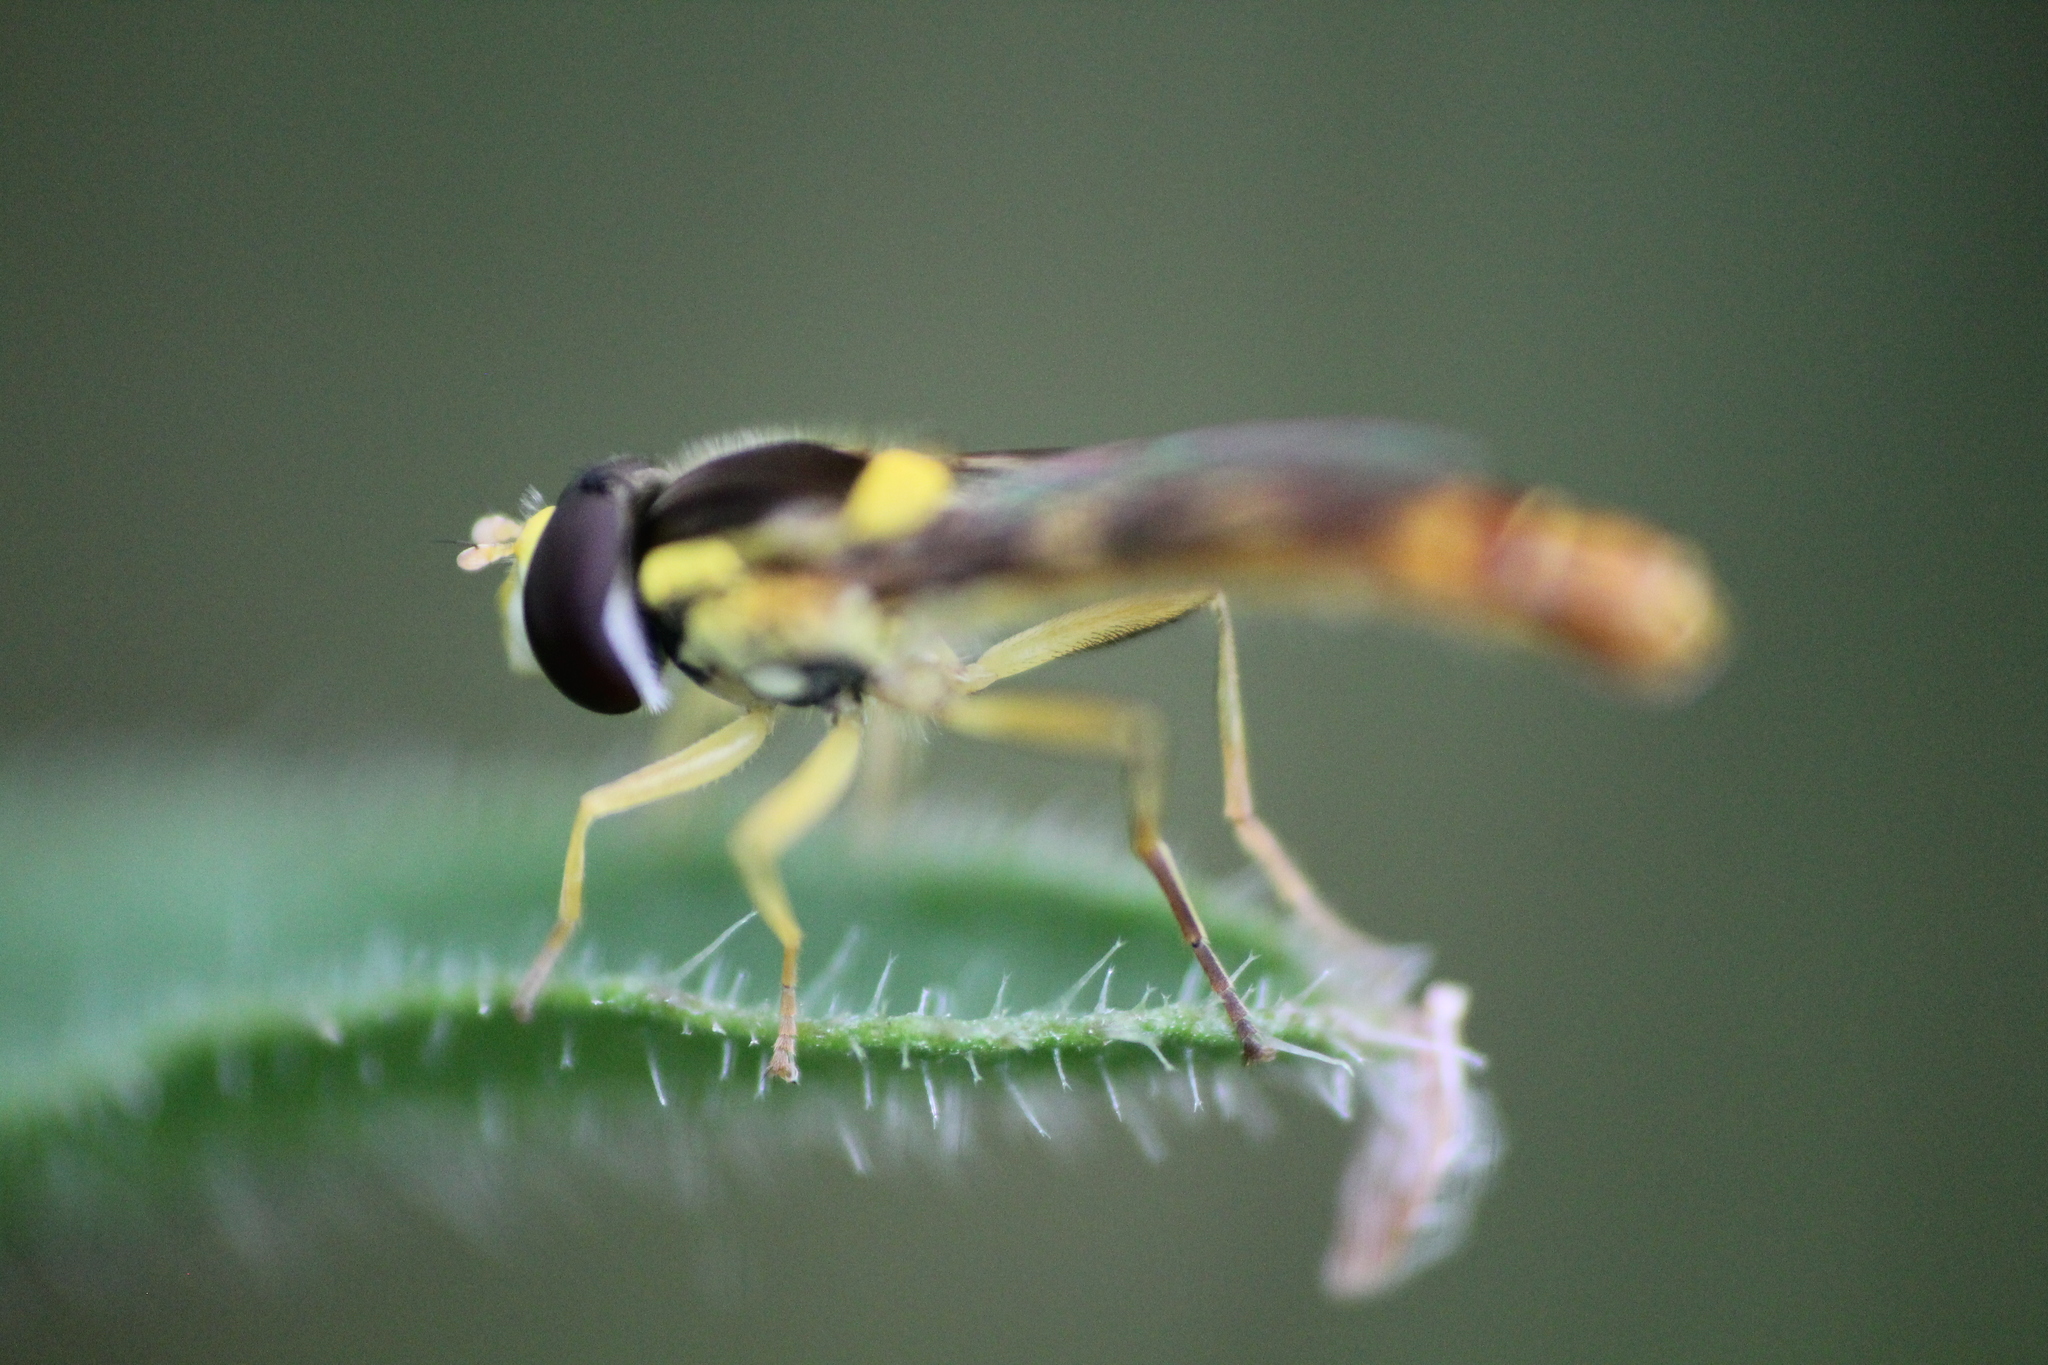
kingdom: Animalia
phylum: Arthropoda
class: Insecta
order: Diptera
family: Syrphidae
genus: Sphaerophoria
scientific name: Sphaerophoria scripta
